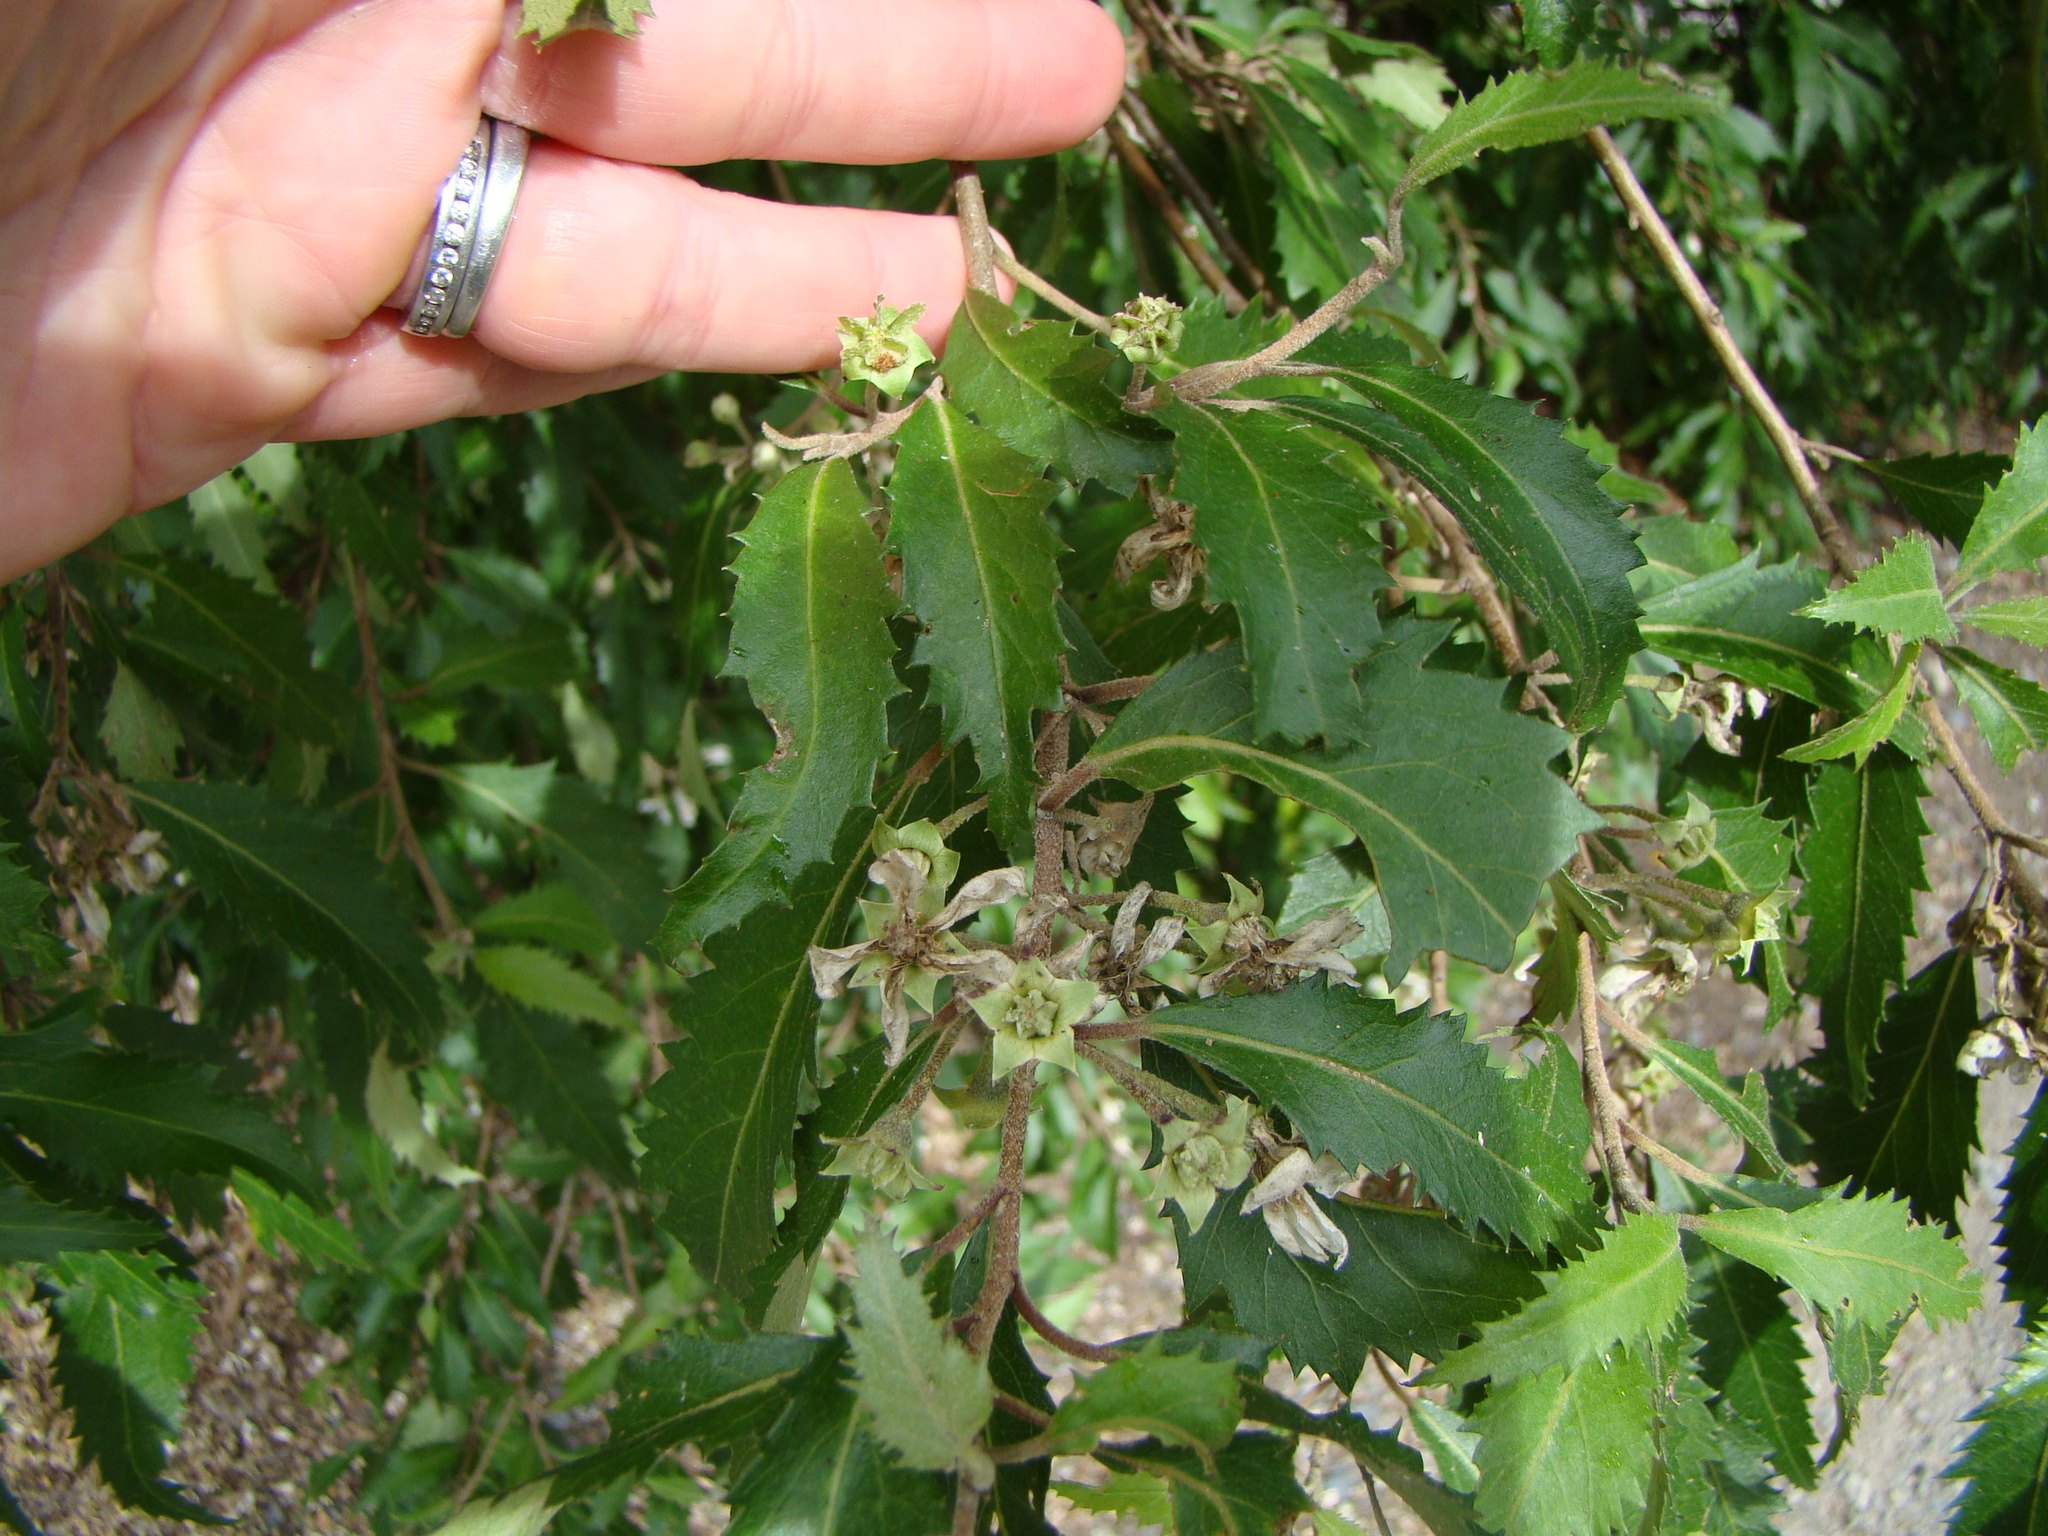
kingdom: Plantae
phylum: Tracheophyta
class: Magnoliopsida
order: Malvales
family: Malvaceae
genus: Hoheria
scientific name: Hoheria sexstylosa
